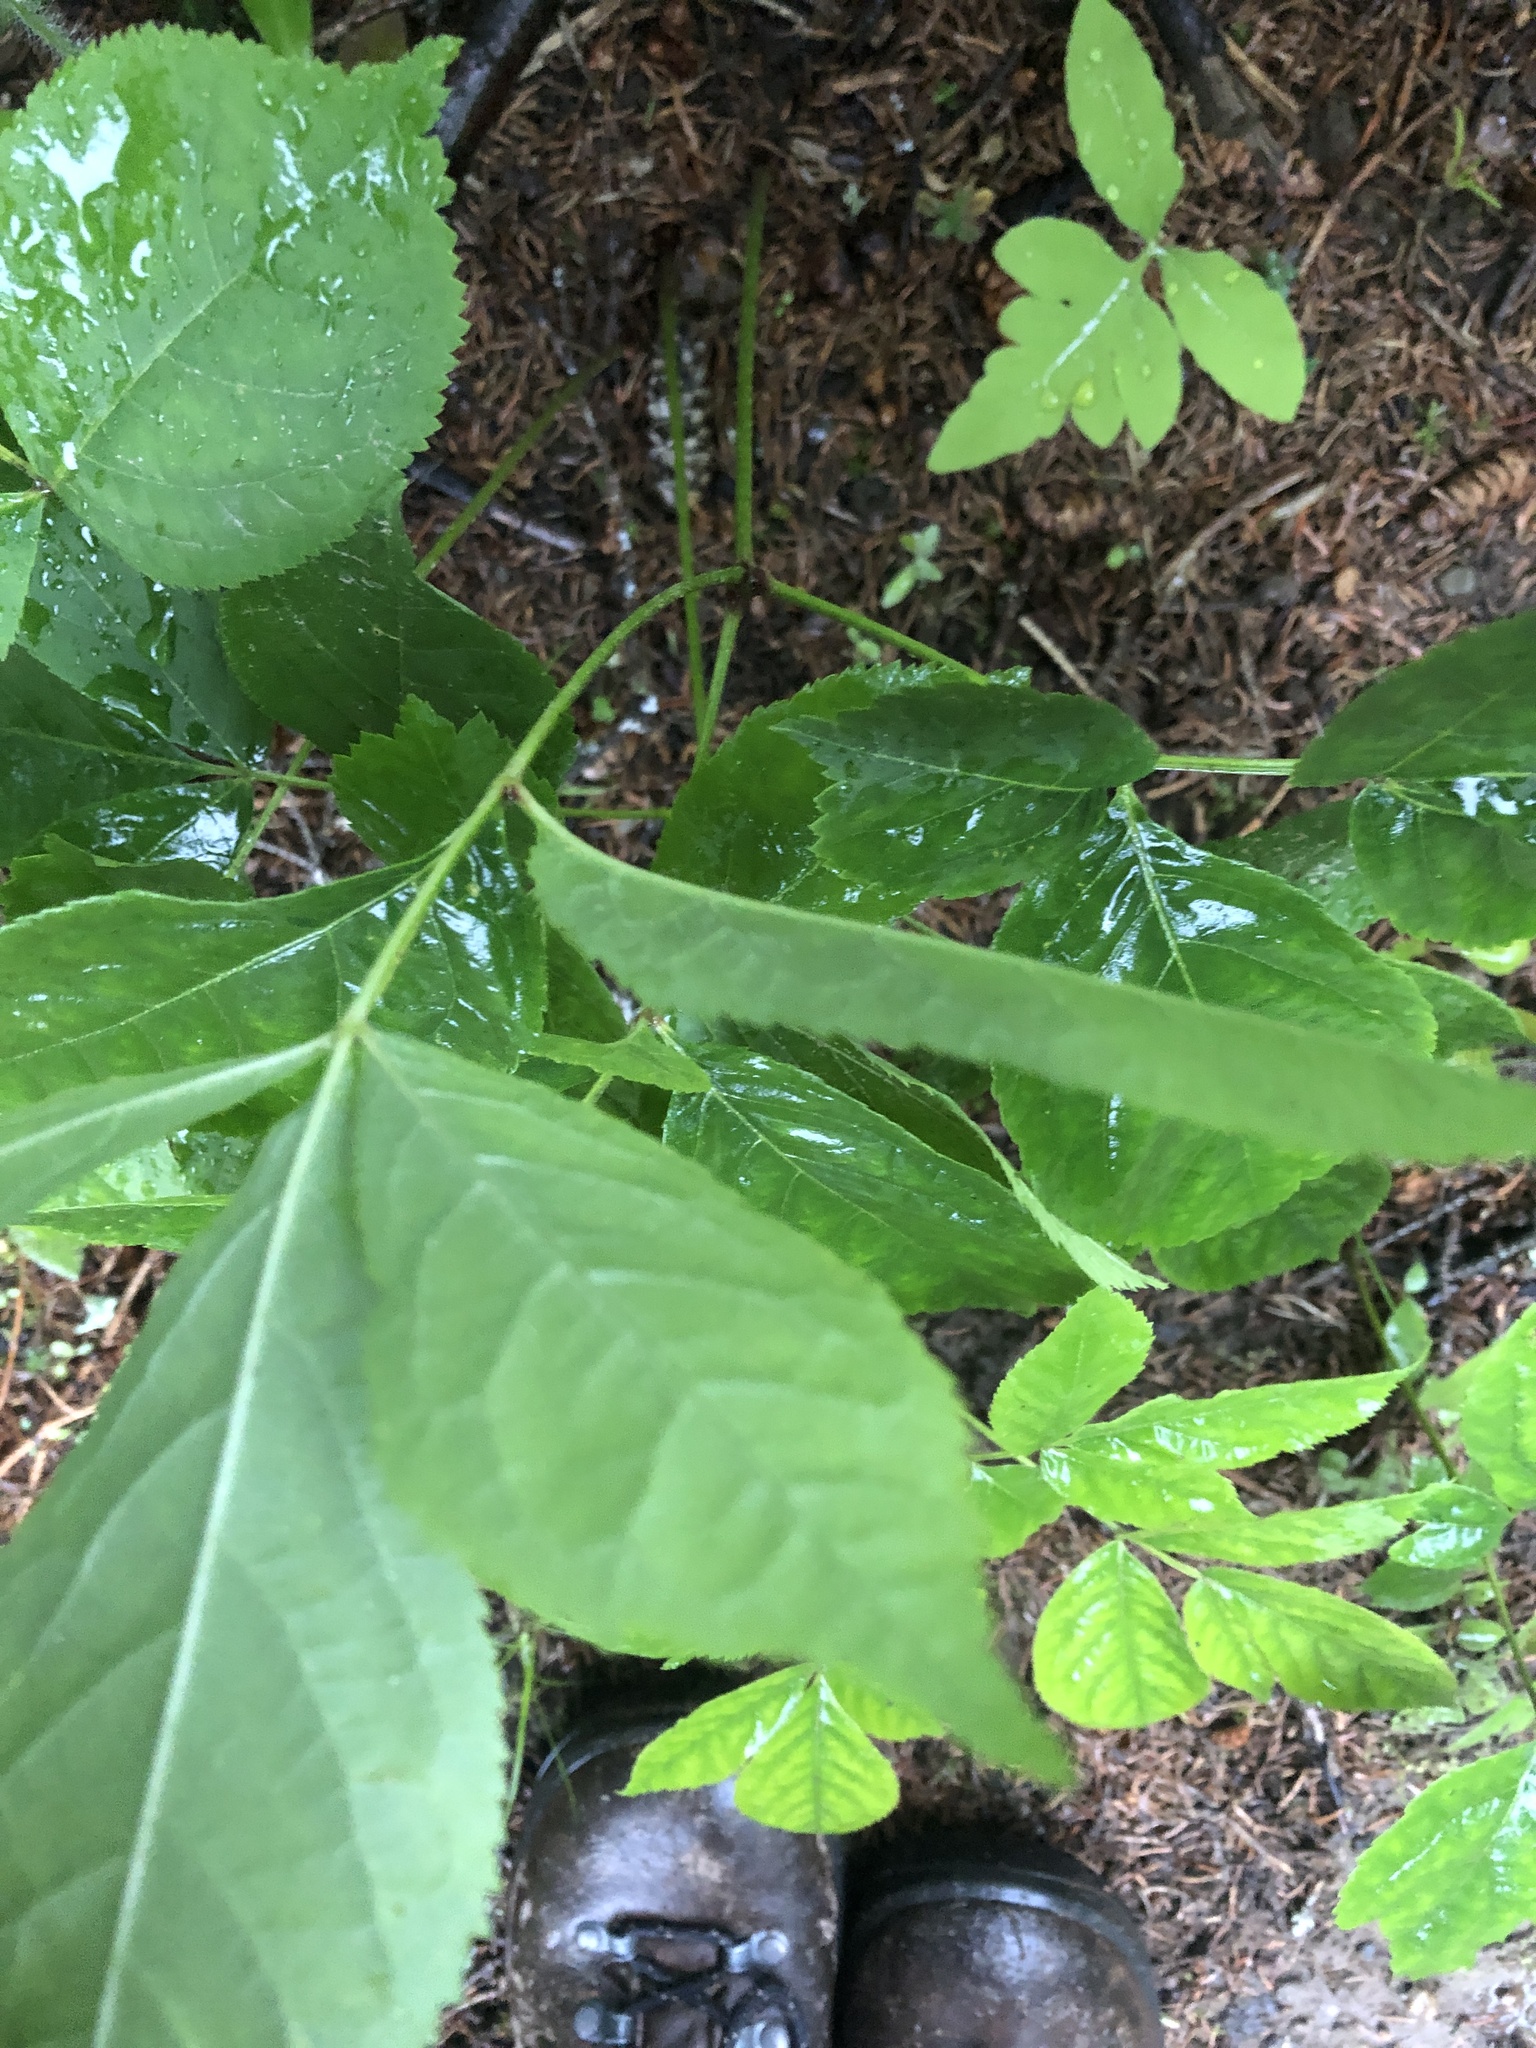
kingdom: Plantae
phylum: Tracheophyta
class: Magnoliopsida
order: Apiales
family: Araliaceae
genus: Aralia
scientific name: Aralia nudicaulis
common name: Wild sarsaparilla
